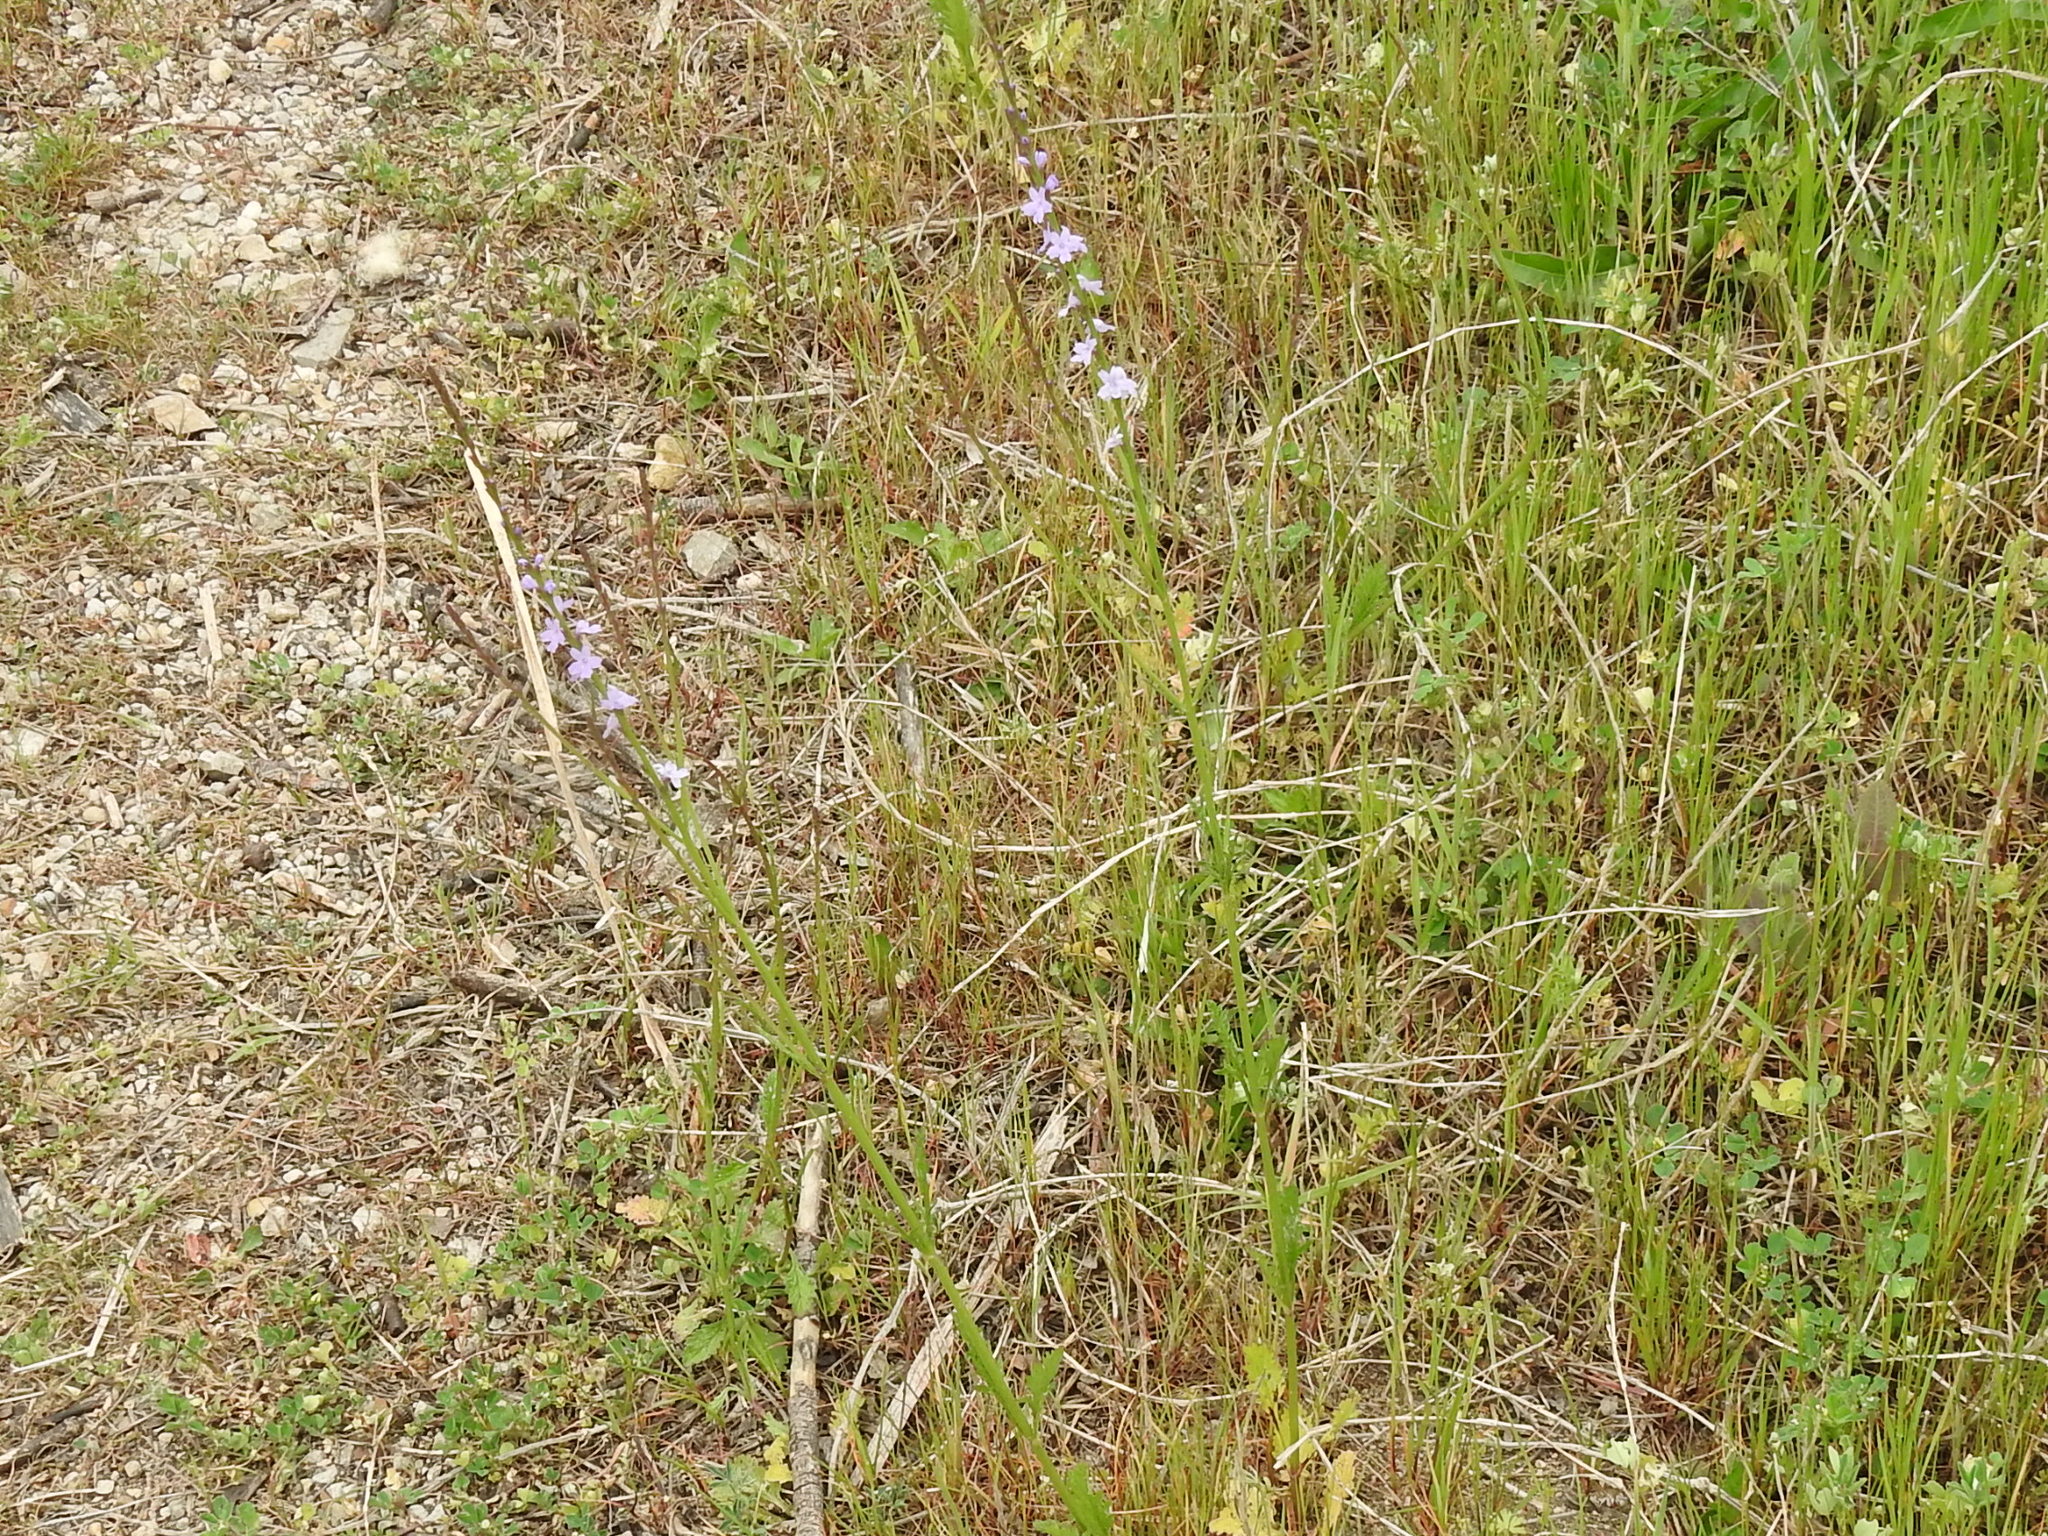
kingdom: Plantae
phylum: Tracheophyta
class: Magnoliopsida
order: Lamiales
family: Verbenaceae
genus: Verbena
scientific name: Verbena halei
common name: Texas vervain
